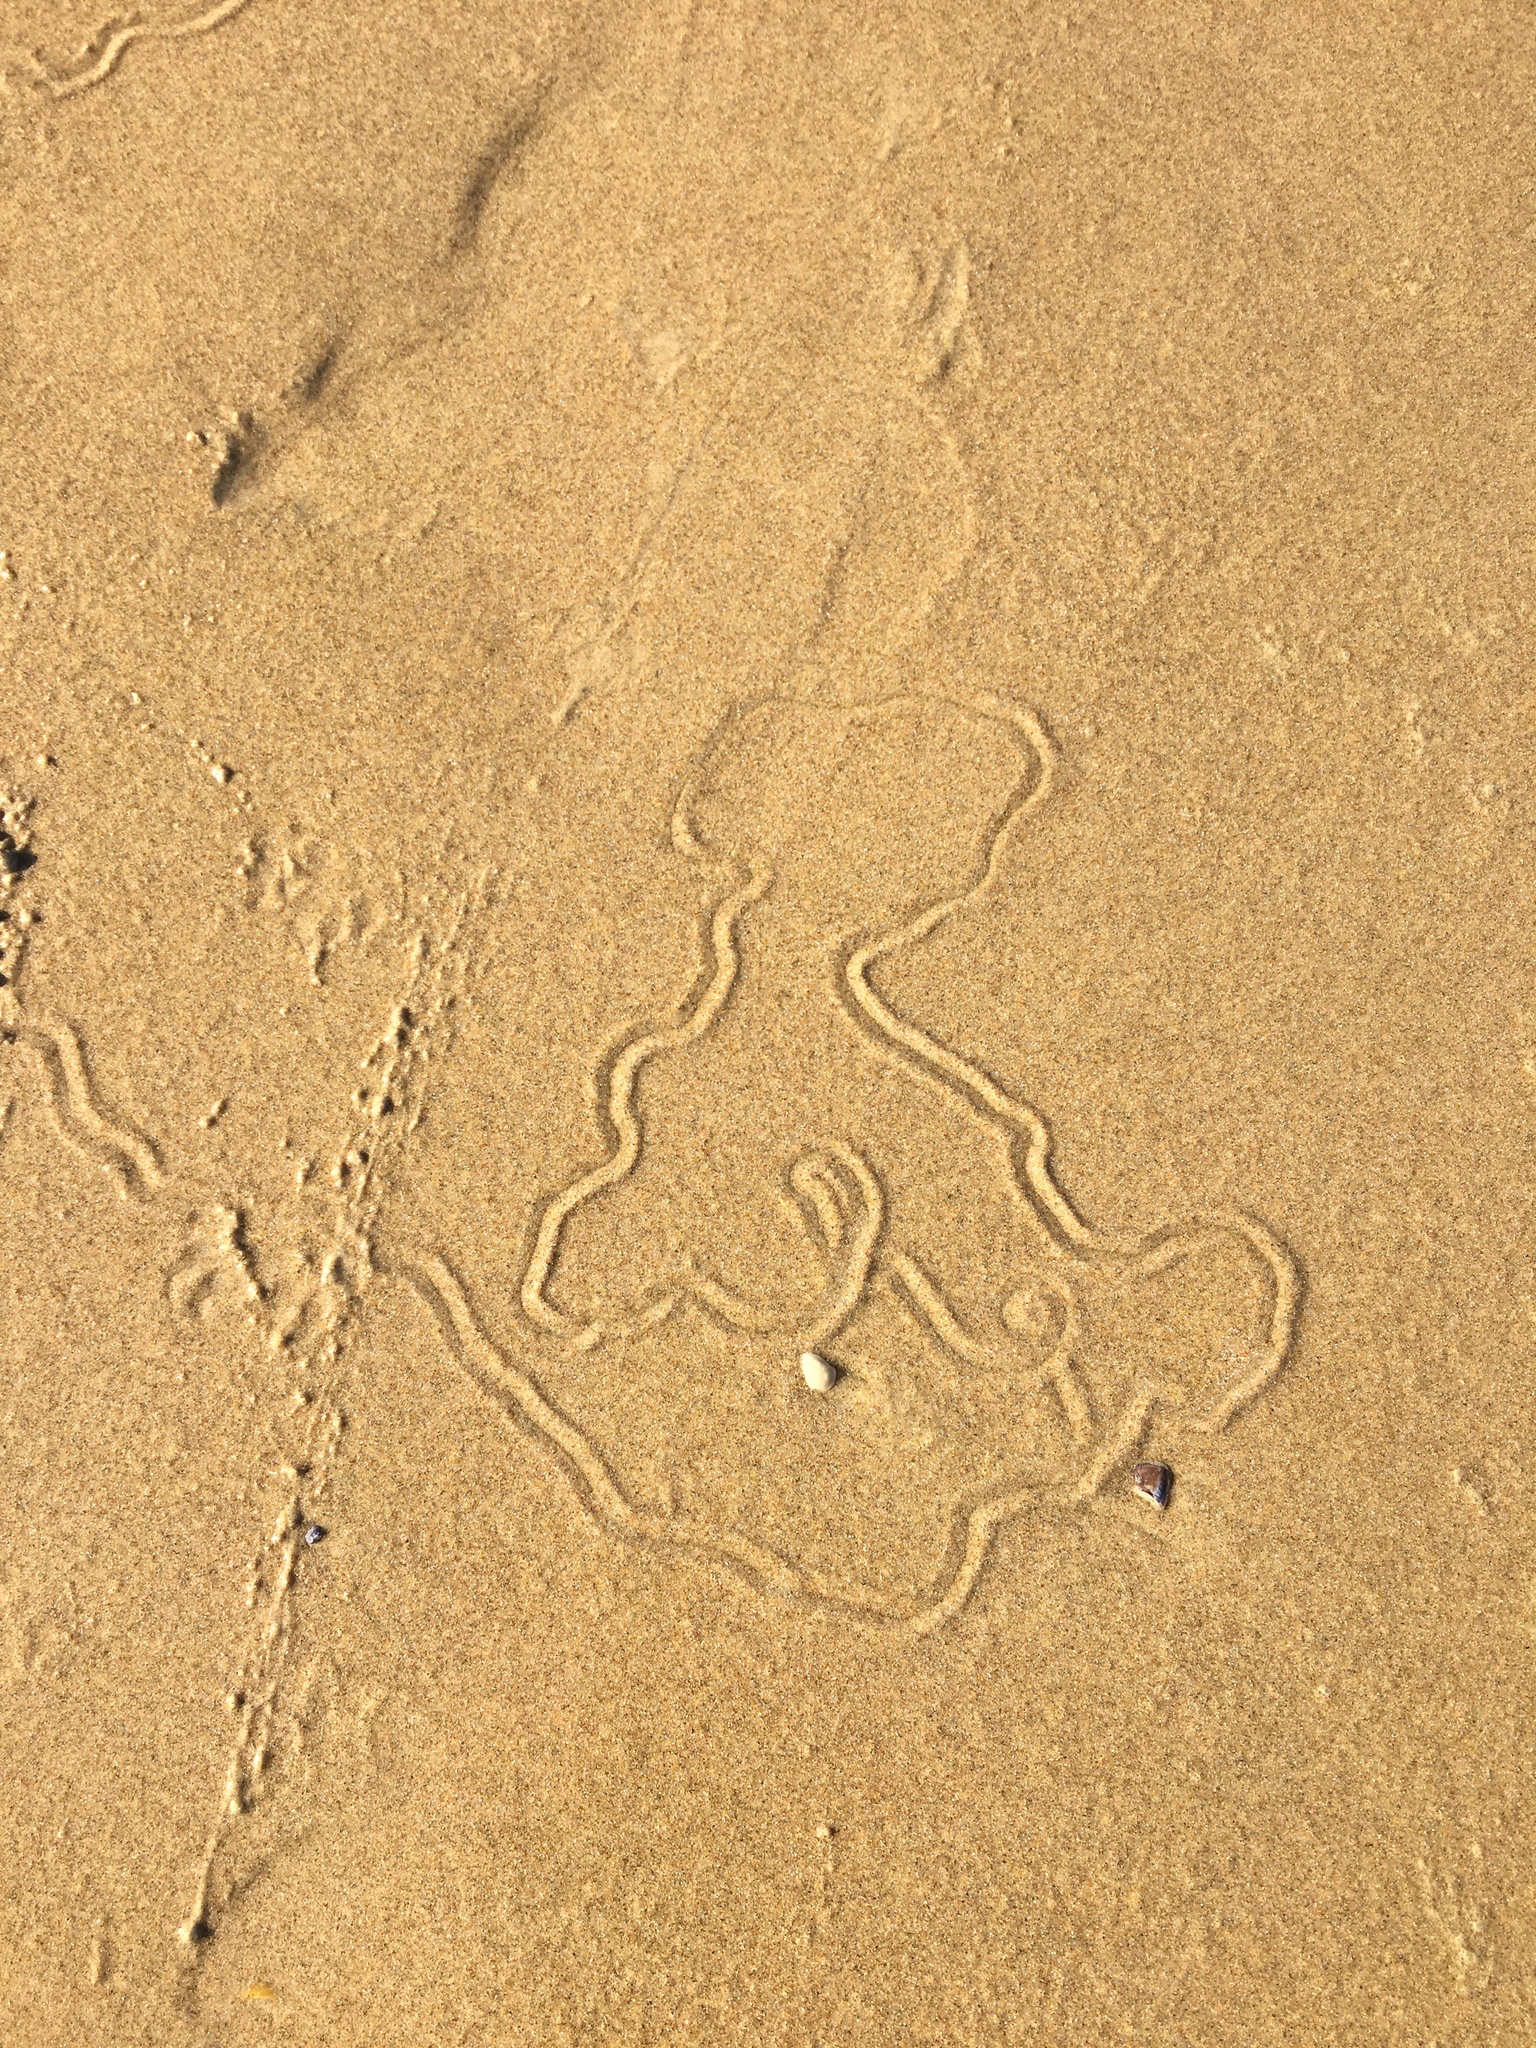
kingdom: Animalia
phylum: Mollusca
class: Gastropoda
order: Littorinimorpha
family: Naticidae
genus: Conuber
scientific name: Conuber incei
